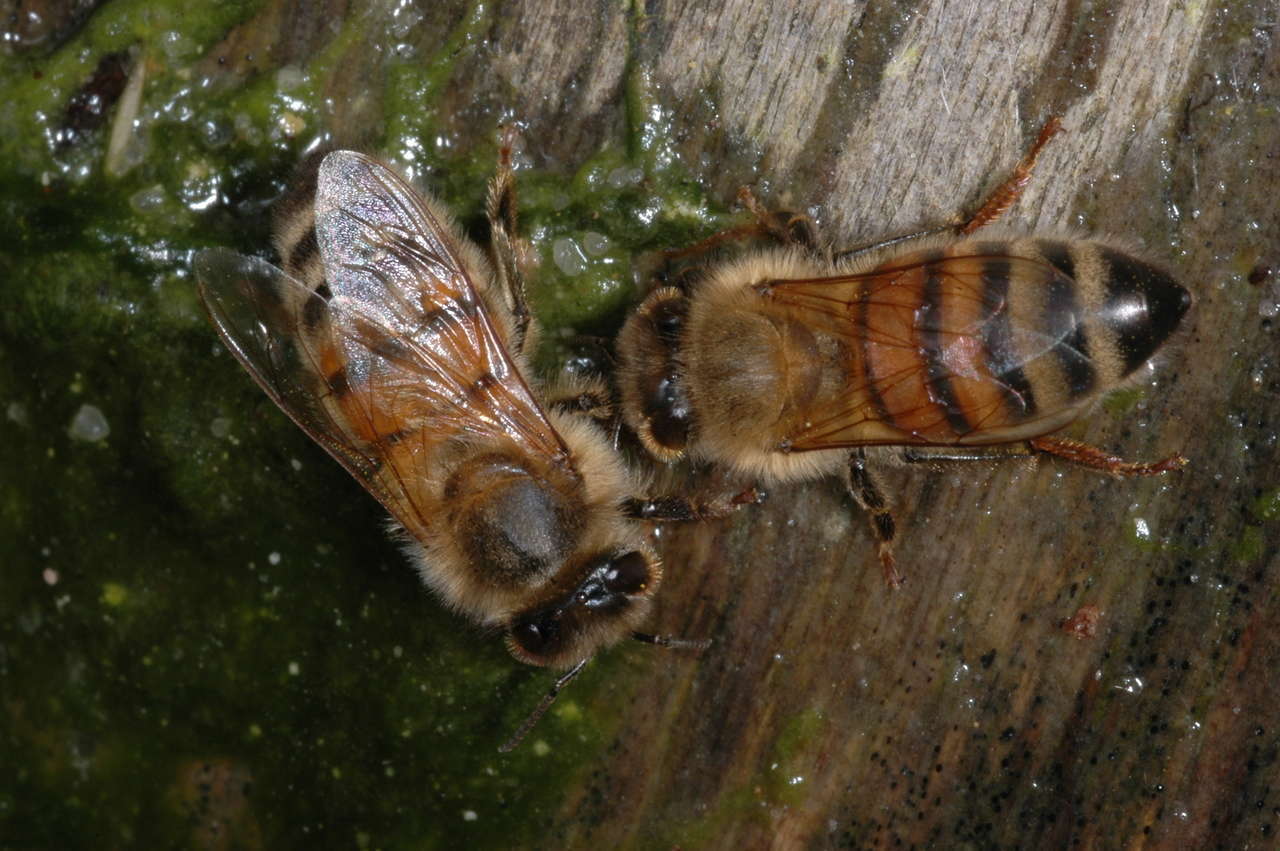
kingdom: Animalia
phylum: Arthropoda
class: Insecta
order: Hymenoptera
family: Apidae
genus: Apis
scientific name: Apis mellifera
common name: Honey bee
